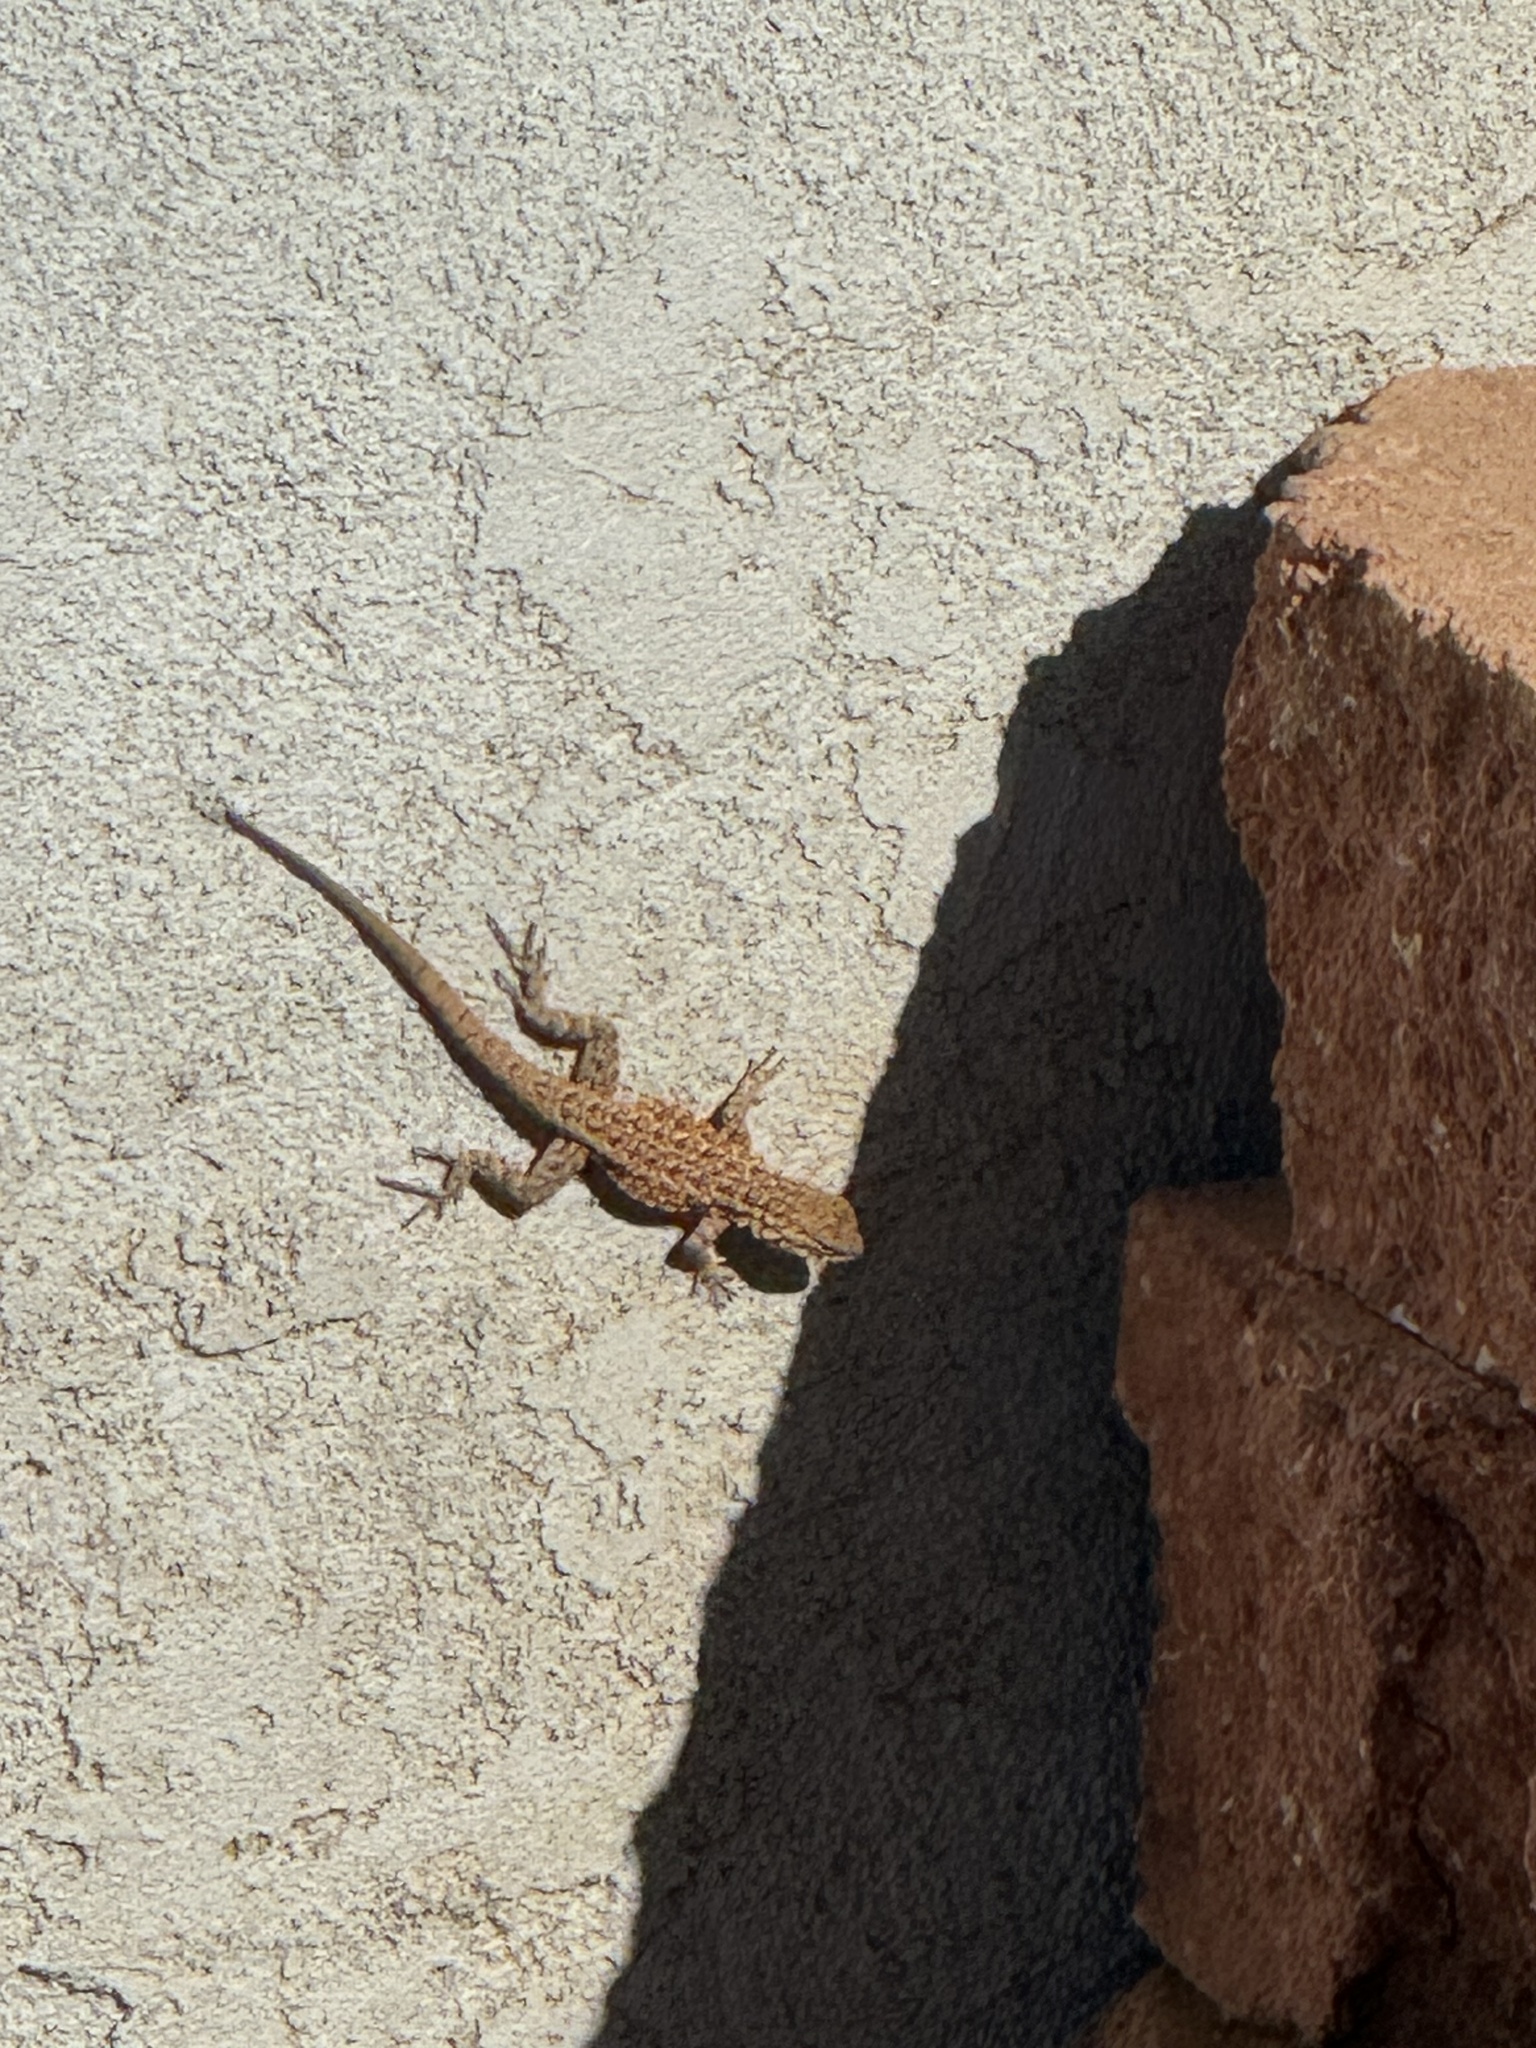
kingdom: Animalia
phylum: Chordata
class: Squamata
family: Phrynosomatidae
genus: Uta
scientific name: Uta stansburiana
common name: Side-blotched lizard
